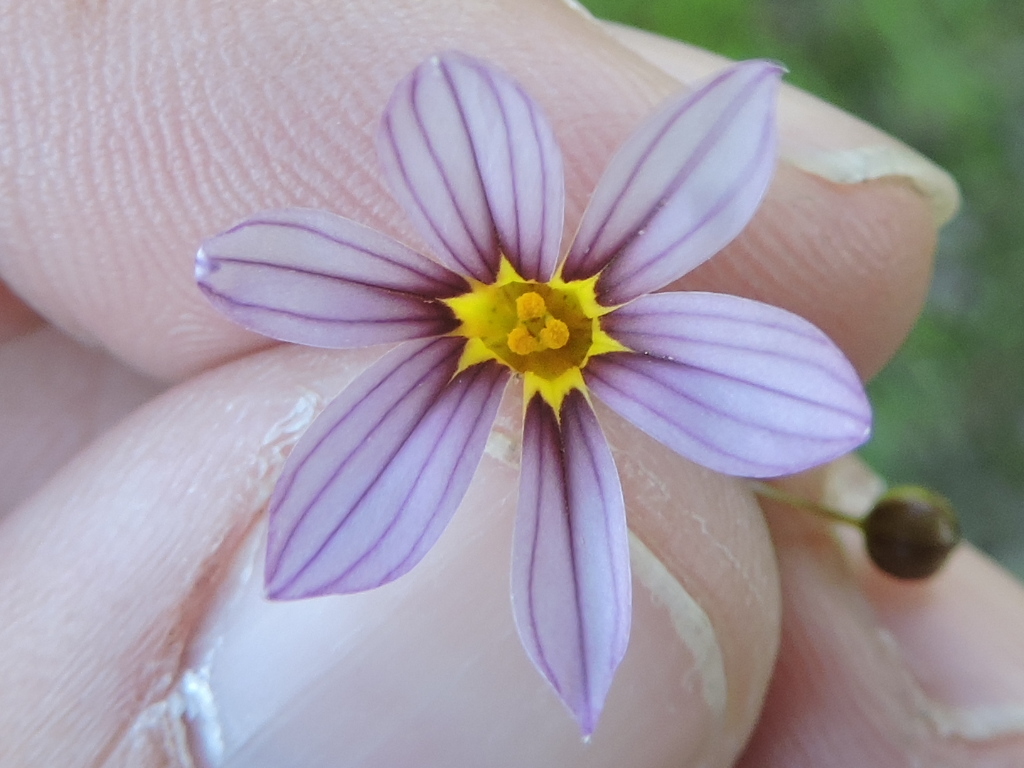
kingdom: Plantae
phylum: Tracheophyta
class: Liliopsida
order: Asparagales
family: Iridaceae
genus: Sisyrinchium
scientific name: Sisyrinchium micranthum
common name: Bermuda pigroot
